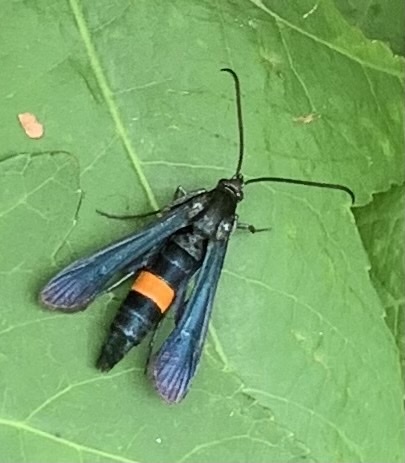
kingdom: Animalia
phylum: Arthropoda
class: Insecta
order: Lepidoptera
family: Sesiidae
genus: Synanthedon
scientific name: Synanthedon exitiosa
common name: Peachtree borer moth
